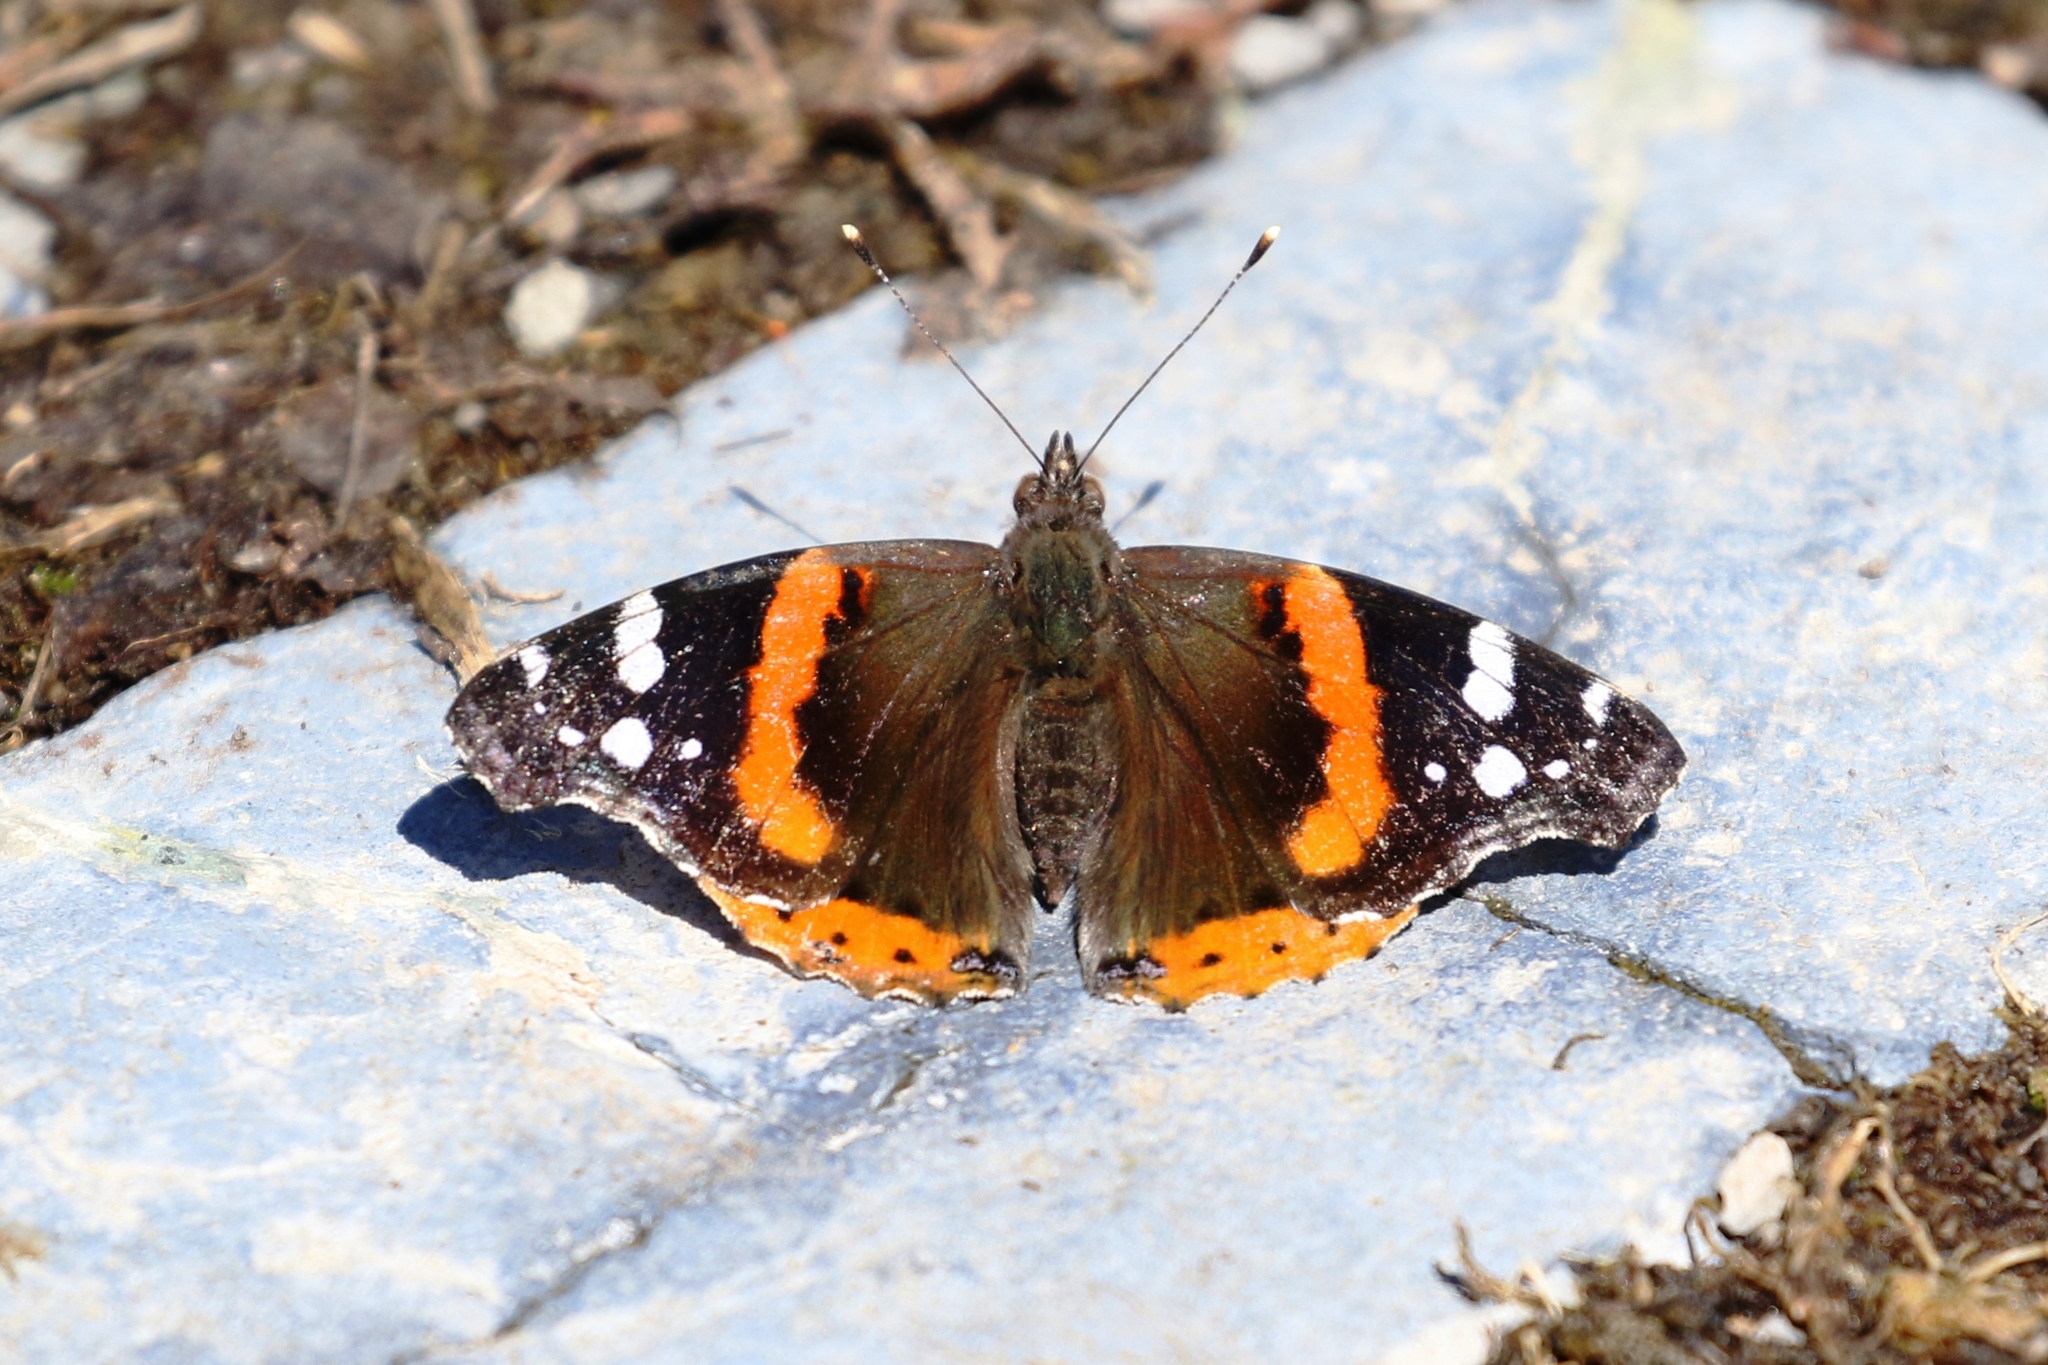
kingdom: Animalia
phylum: Arthropoda
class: Insecta
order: Lepidoptera
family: Nymphalidae
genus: Vanessa
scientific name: Vanessa atalanta
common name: Red admiral
